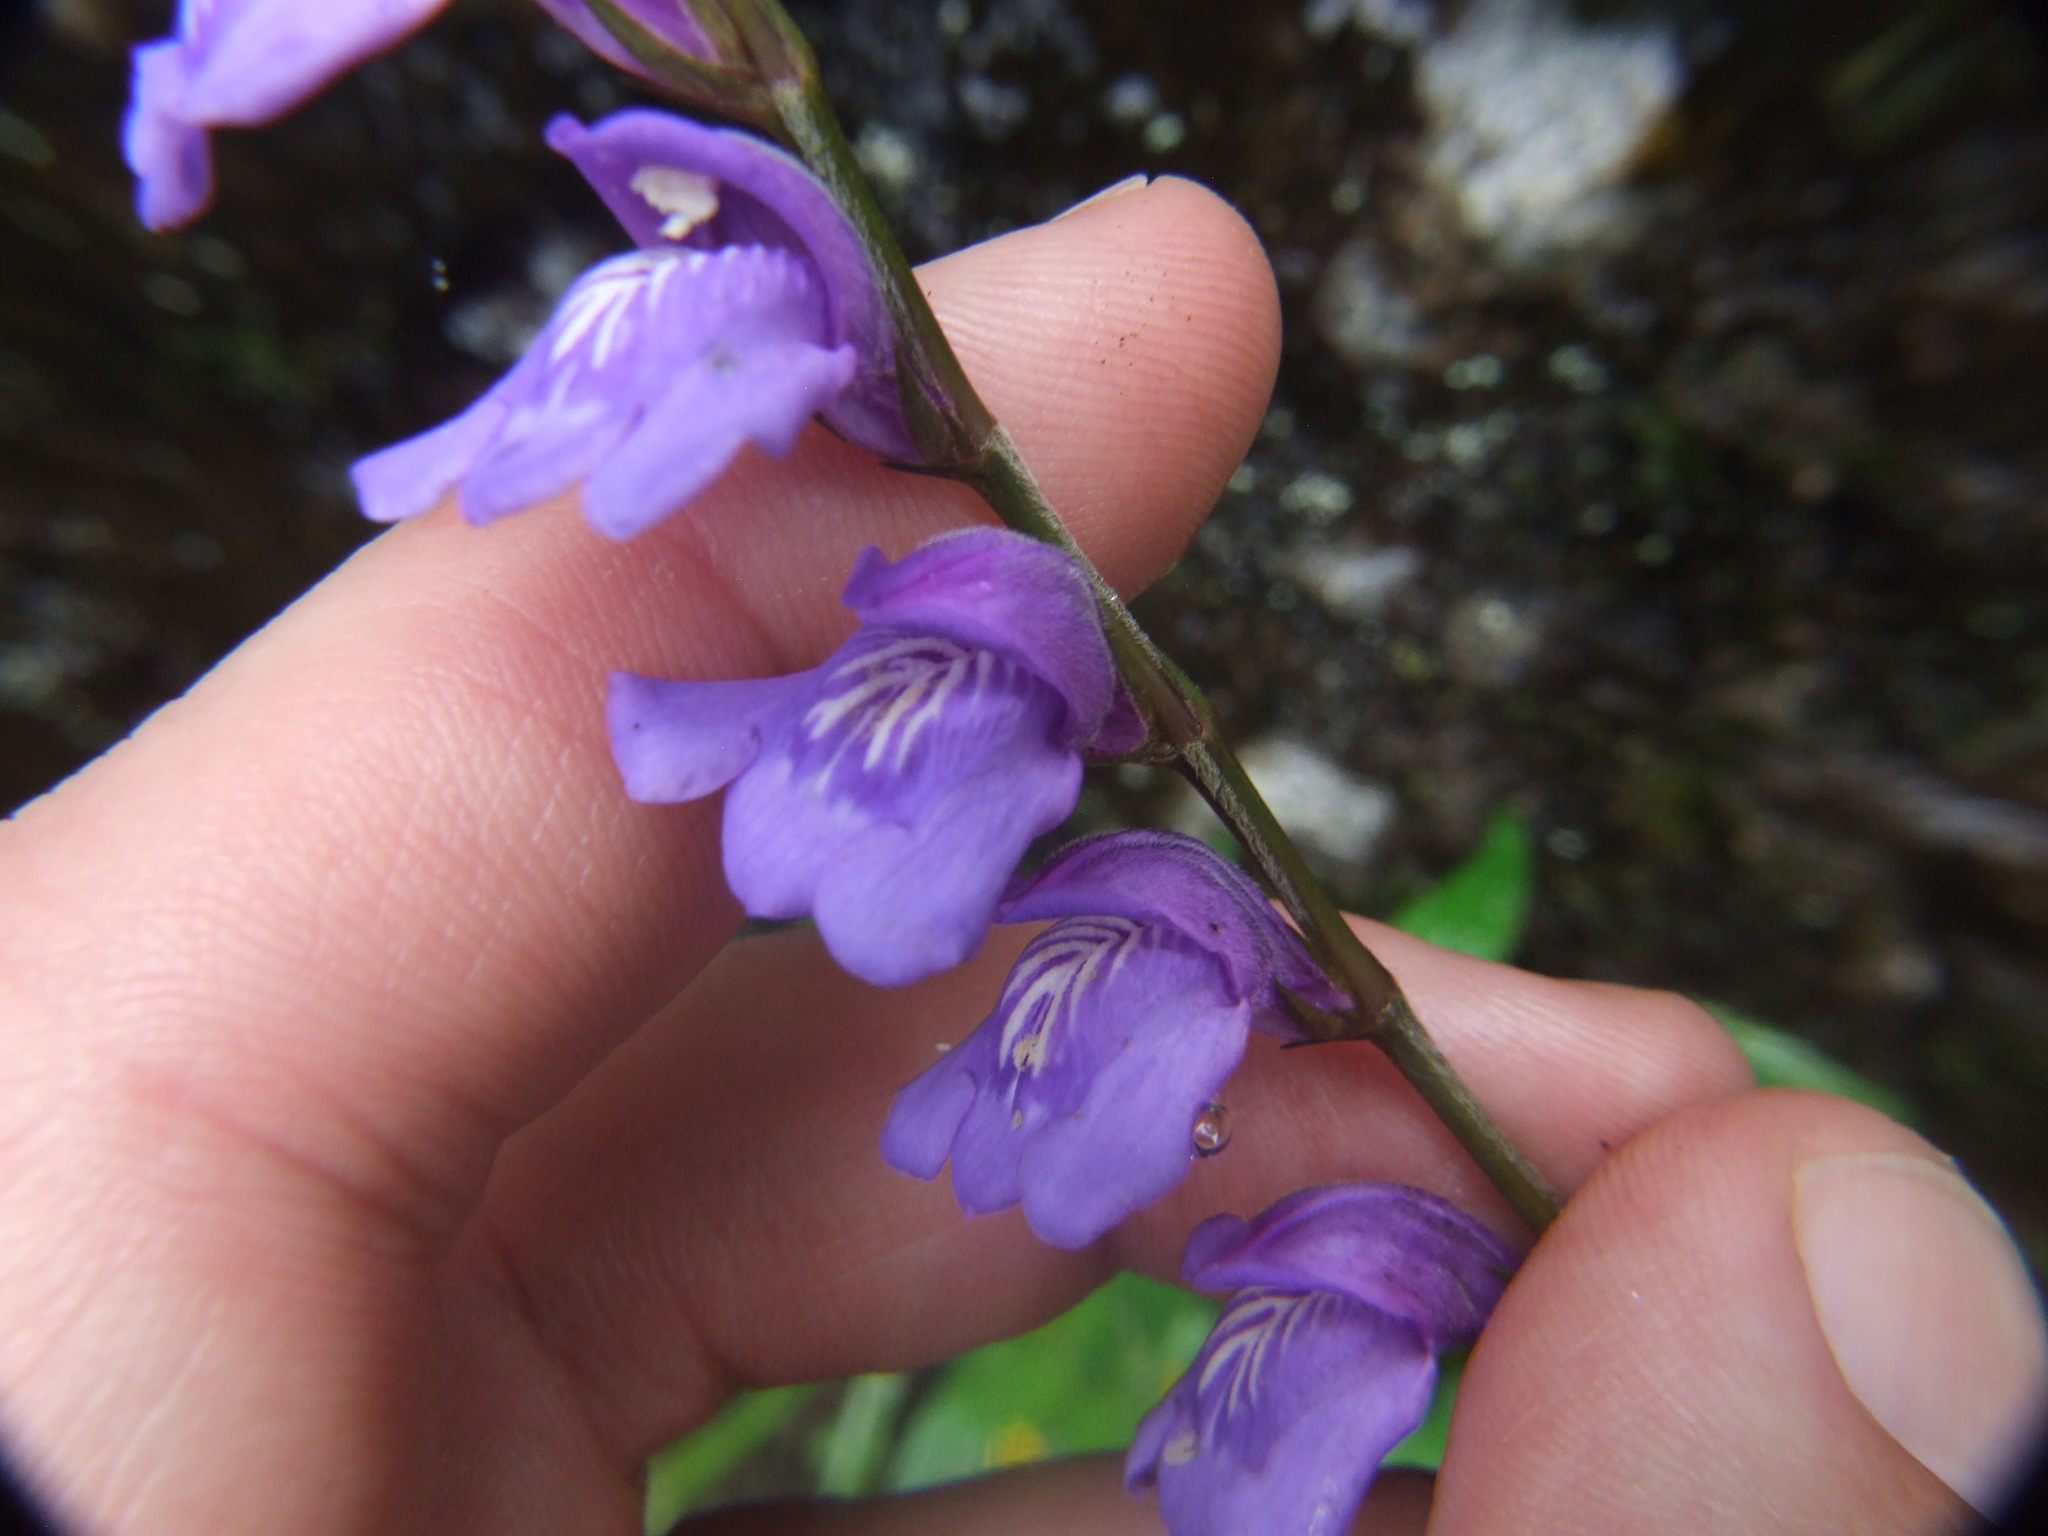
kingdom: Plantae
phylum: Tracheophyta
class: Magnoliopsida
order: Lamiales
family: Acanthaceae
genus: Justicia
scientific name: Justicia alpina
